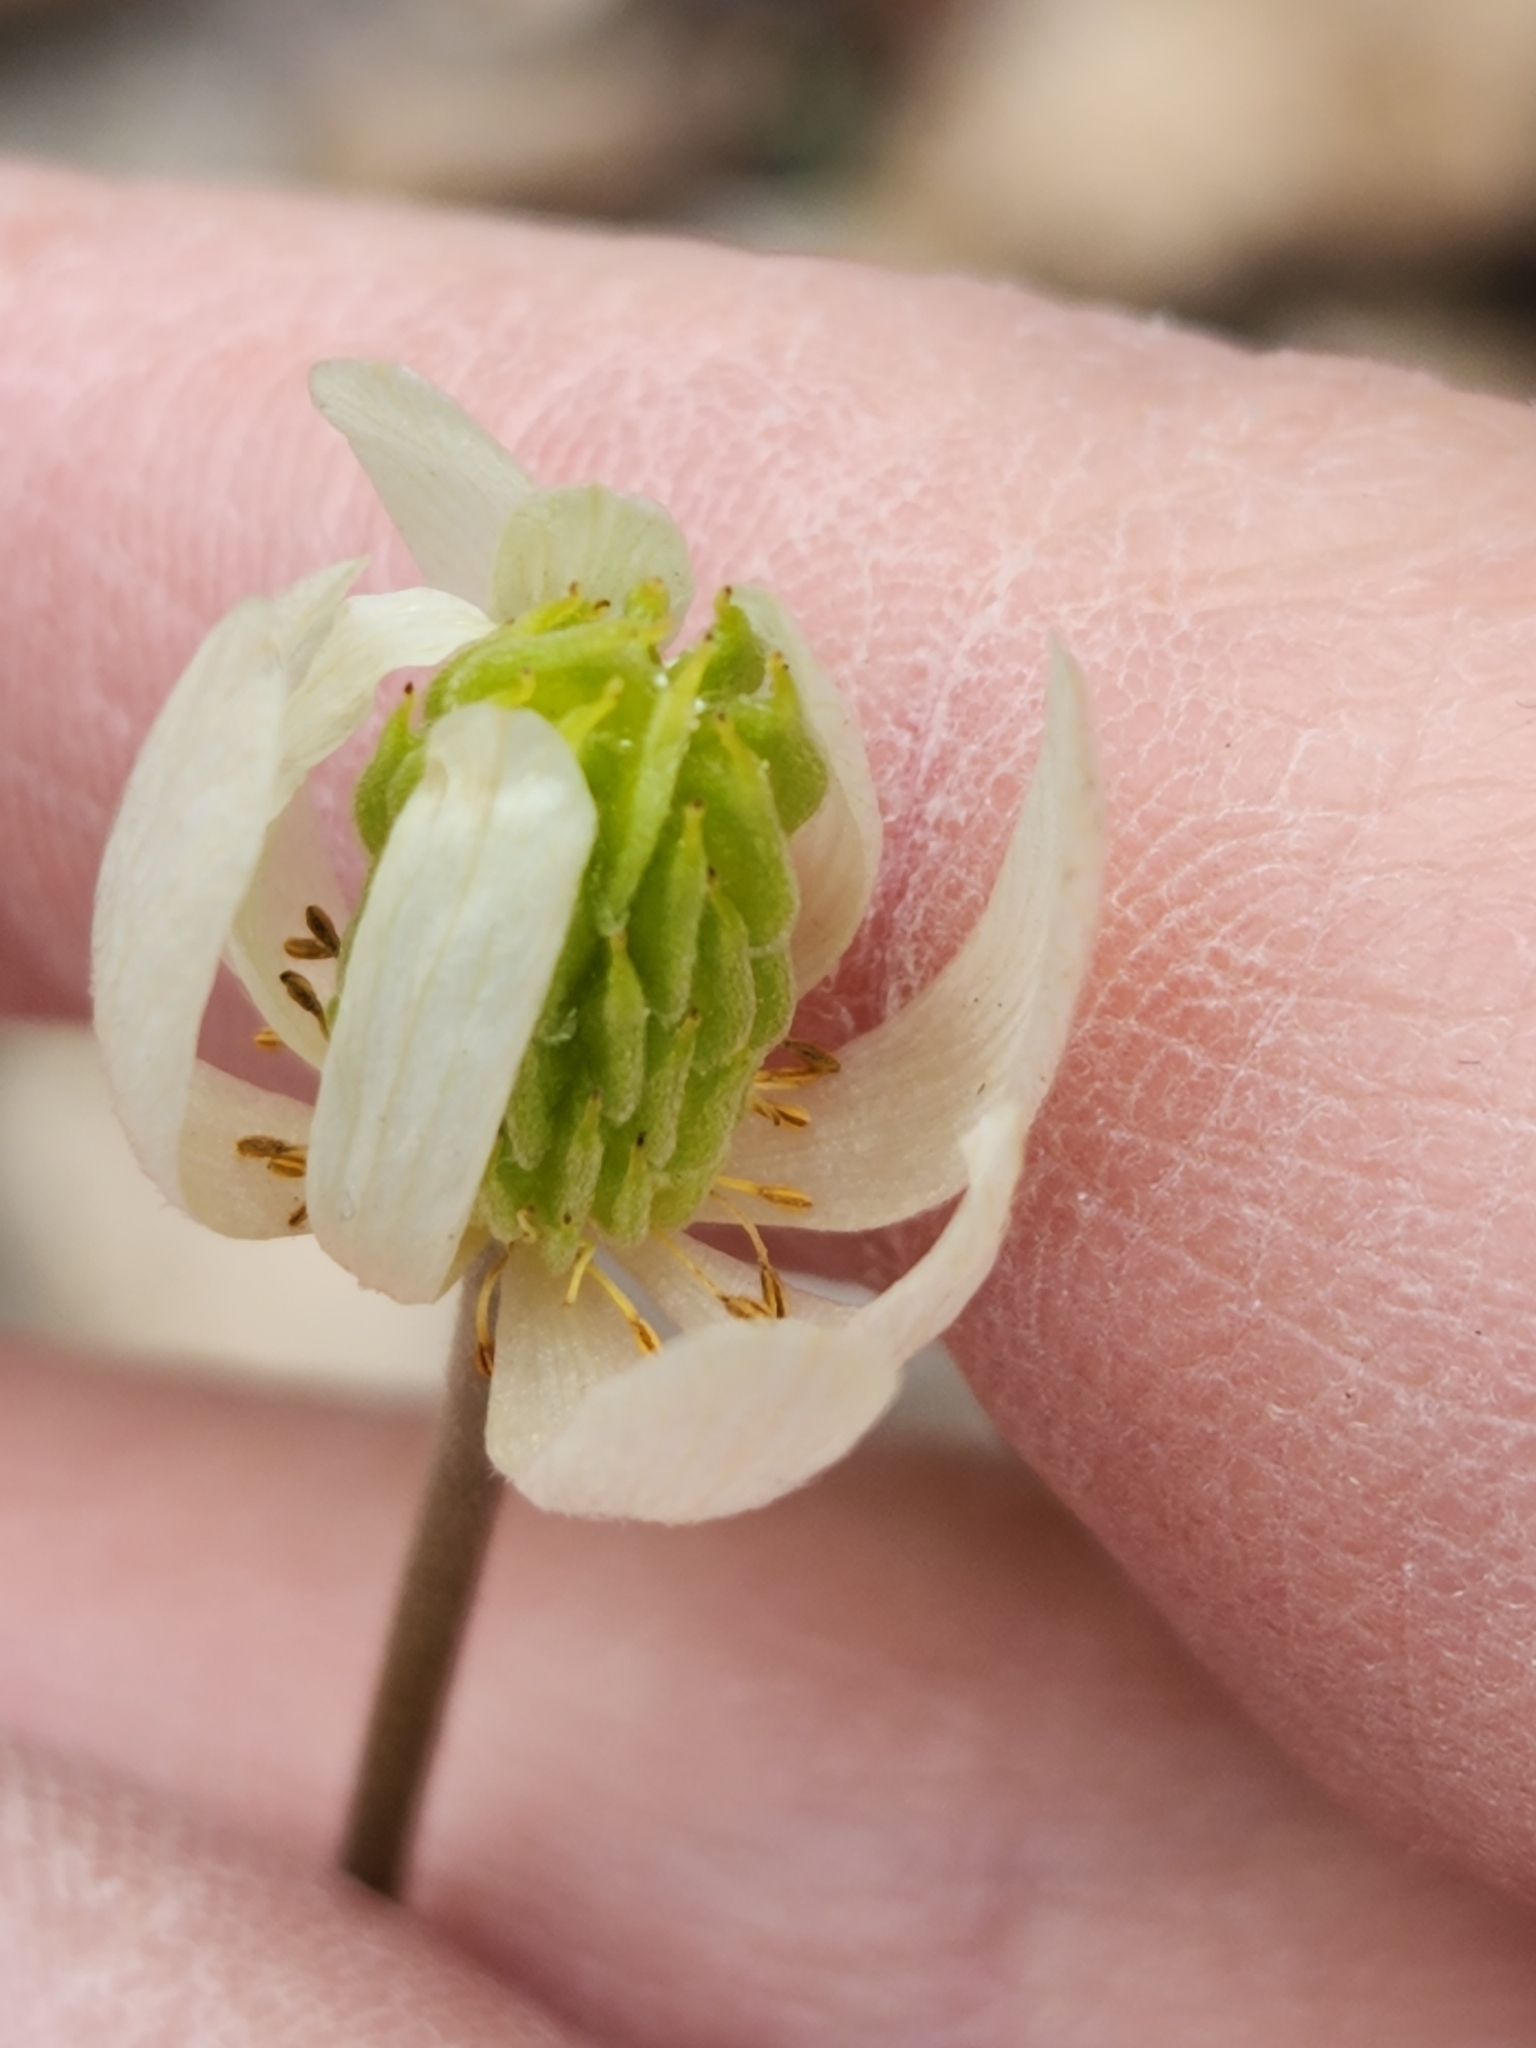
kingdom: Plantae
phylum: Tracheophyta
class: Magnoliopsida
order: Ranunculales
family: Ranunculaceae
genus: Anemone
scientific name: Anemone edwardsiana
